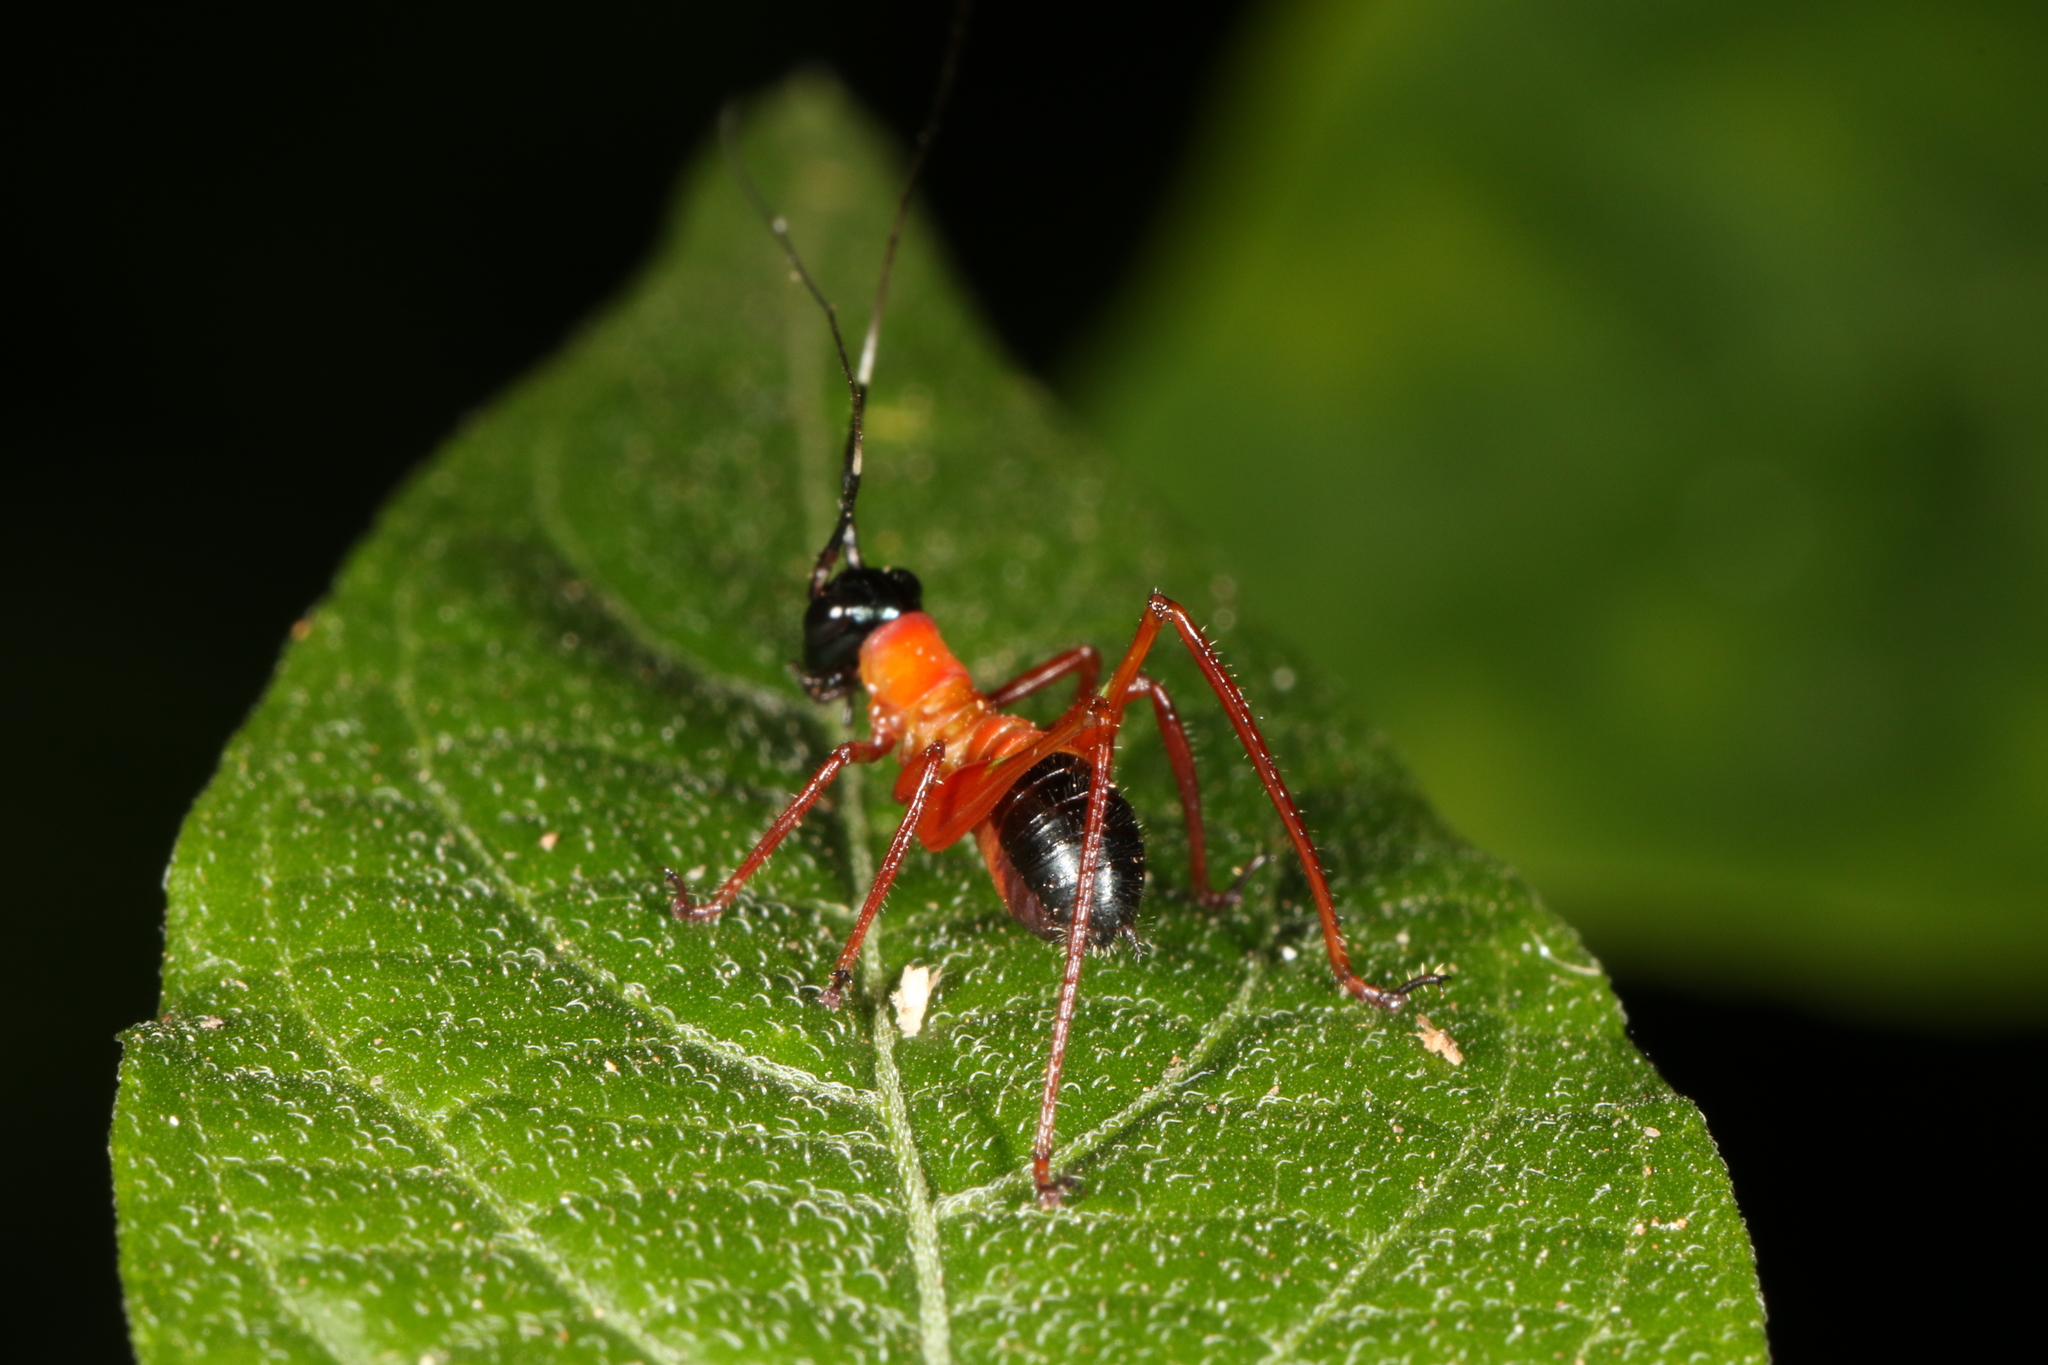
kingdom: Animalia
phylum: Arthropoda
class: Insecta
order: Orthoptera
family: Tettigoniidae
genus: Scaphura
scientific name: Scaphura nigra
